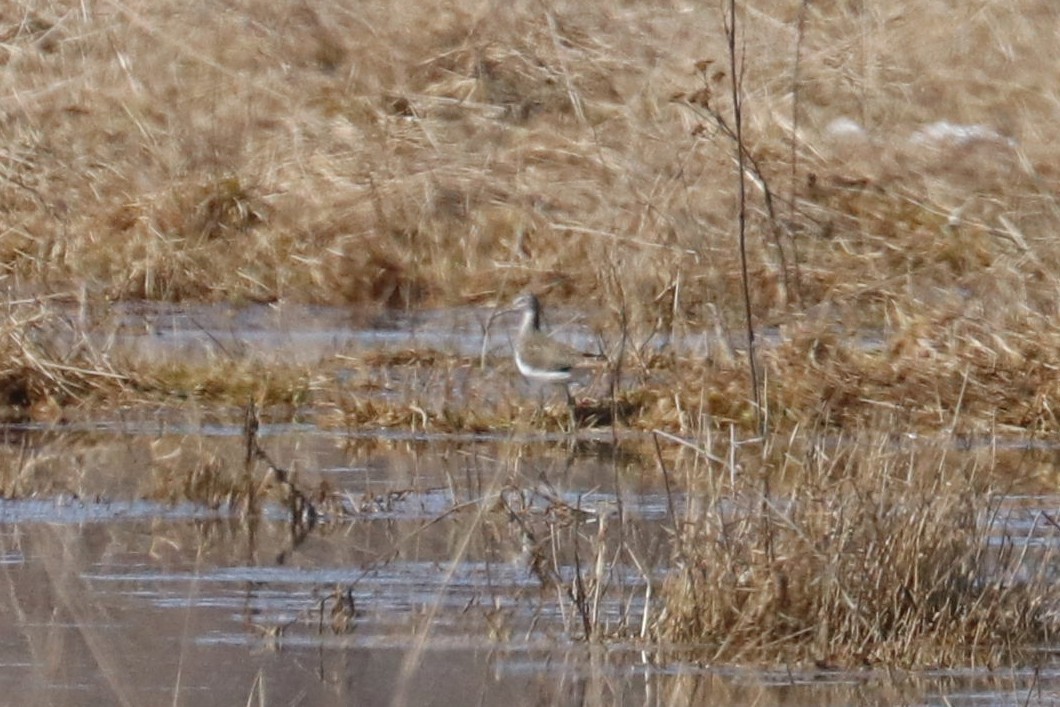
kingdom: Animalia
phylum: Chordata
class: Aves
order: Charadriiformes
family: Scolopacidae
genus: Tringa
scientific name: Tringa ochropus
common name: Green sandpiper
